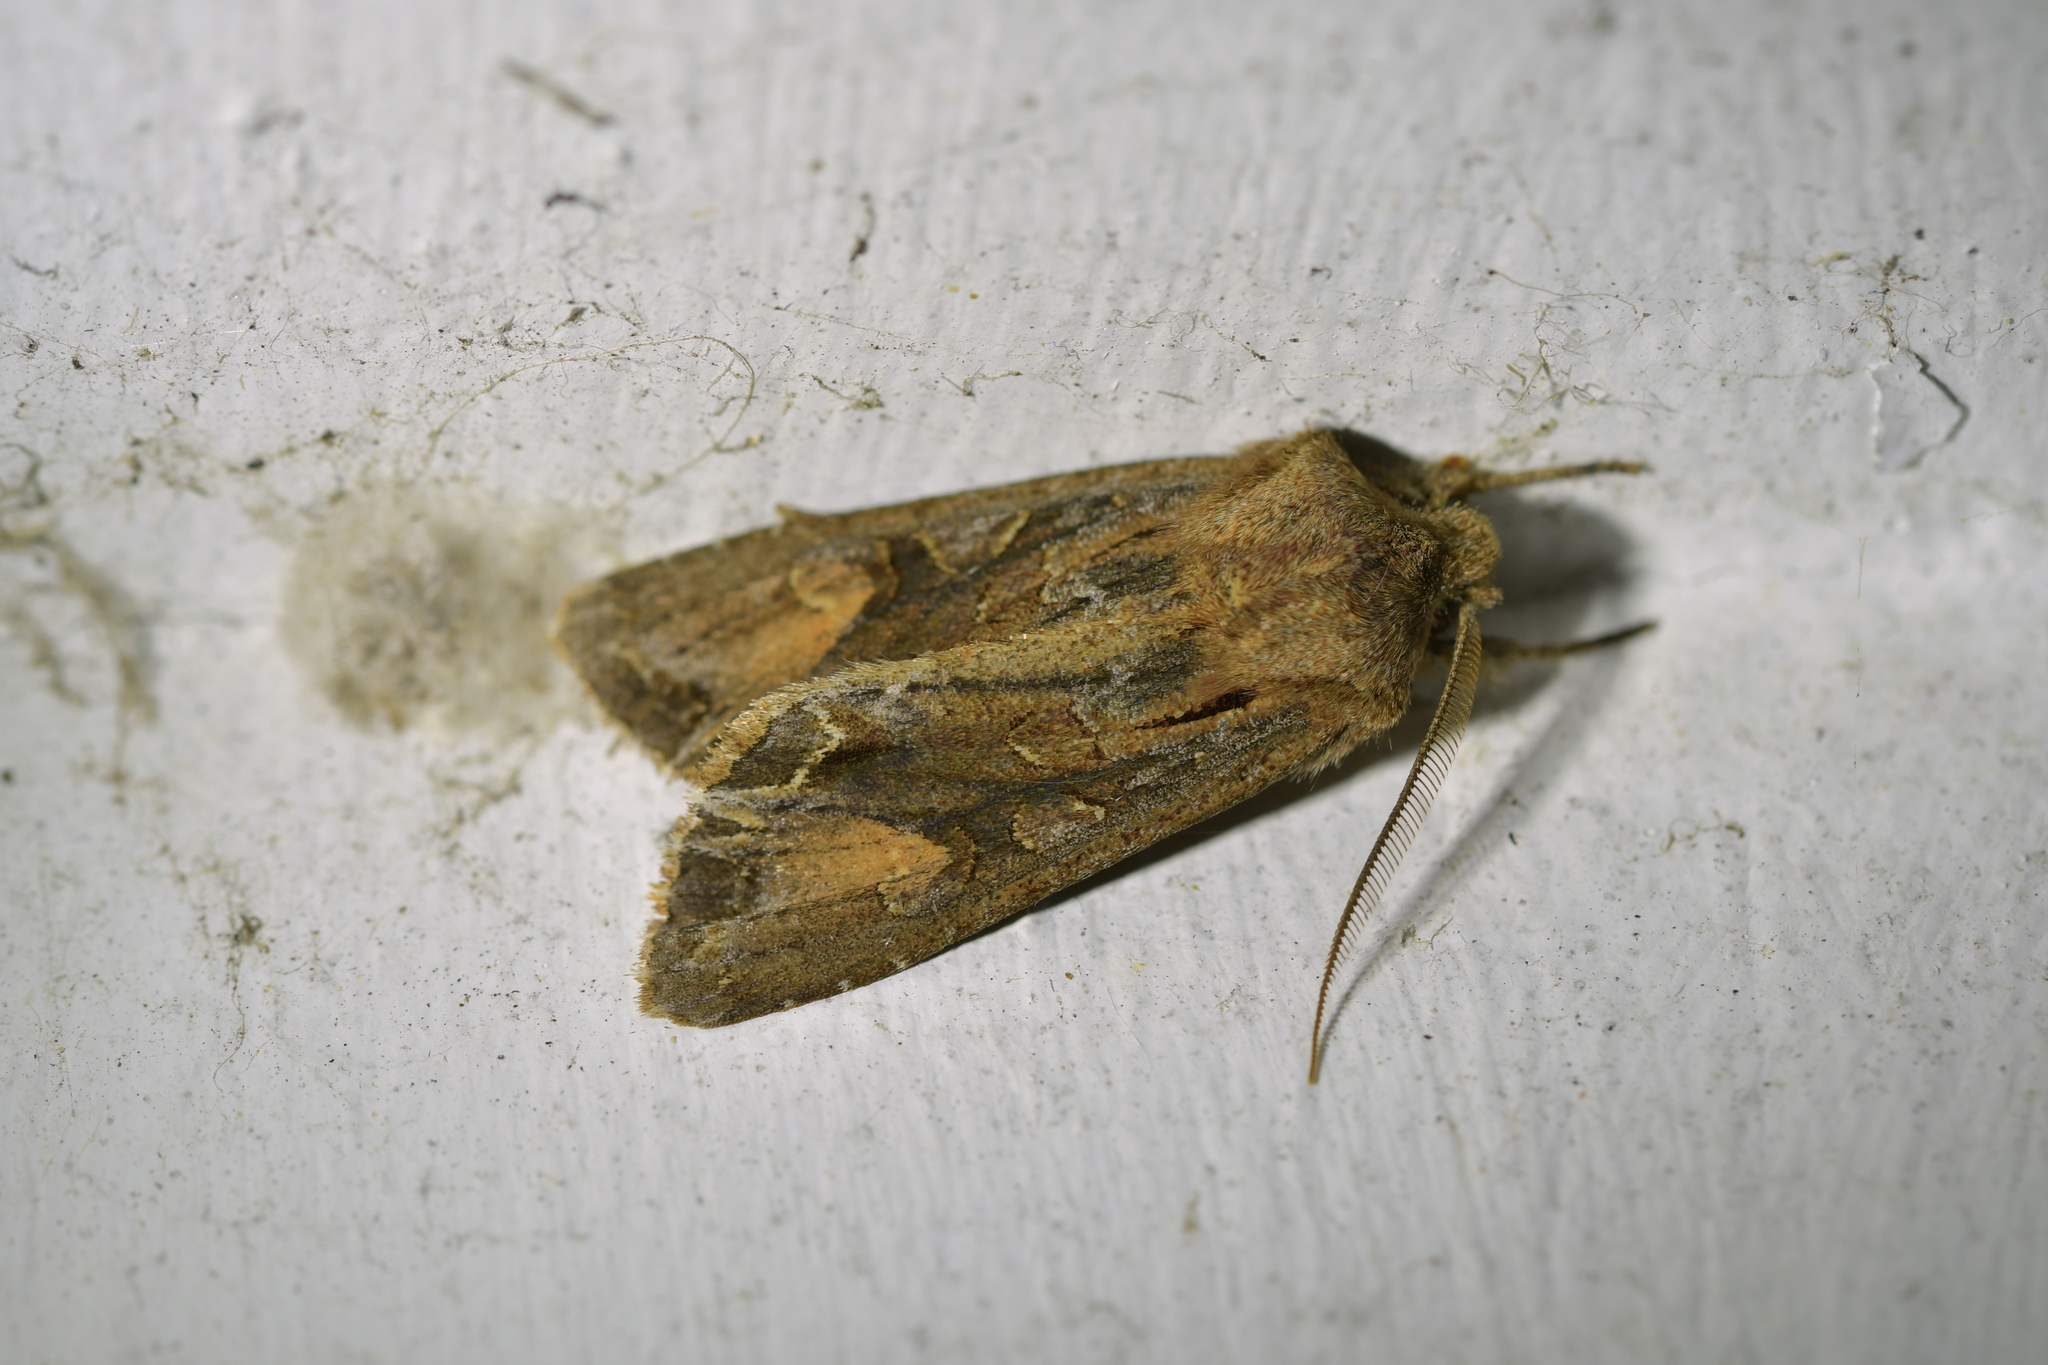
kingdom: Animalia
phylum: Arthropoda
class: Insecta
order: Lepidoptera
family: Noctuidae
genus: Ichneutica
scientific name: Ichneutica
